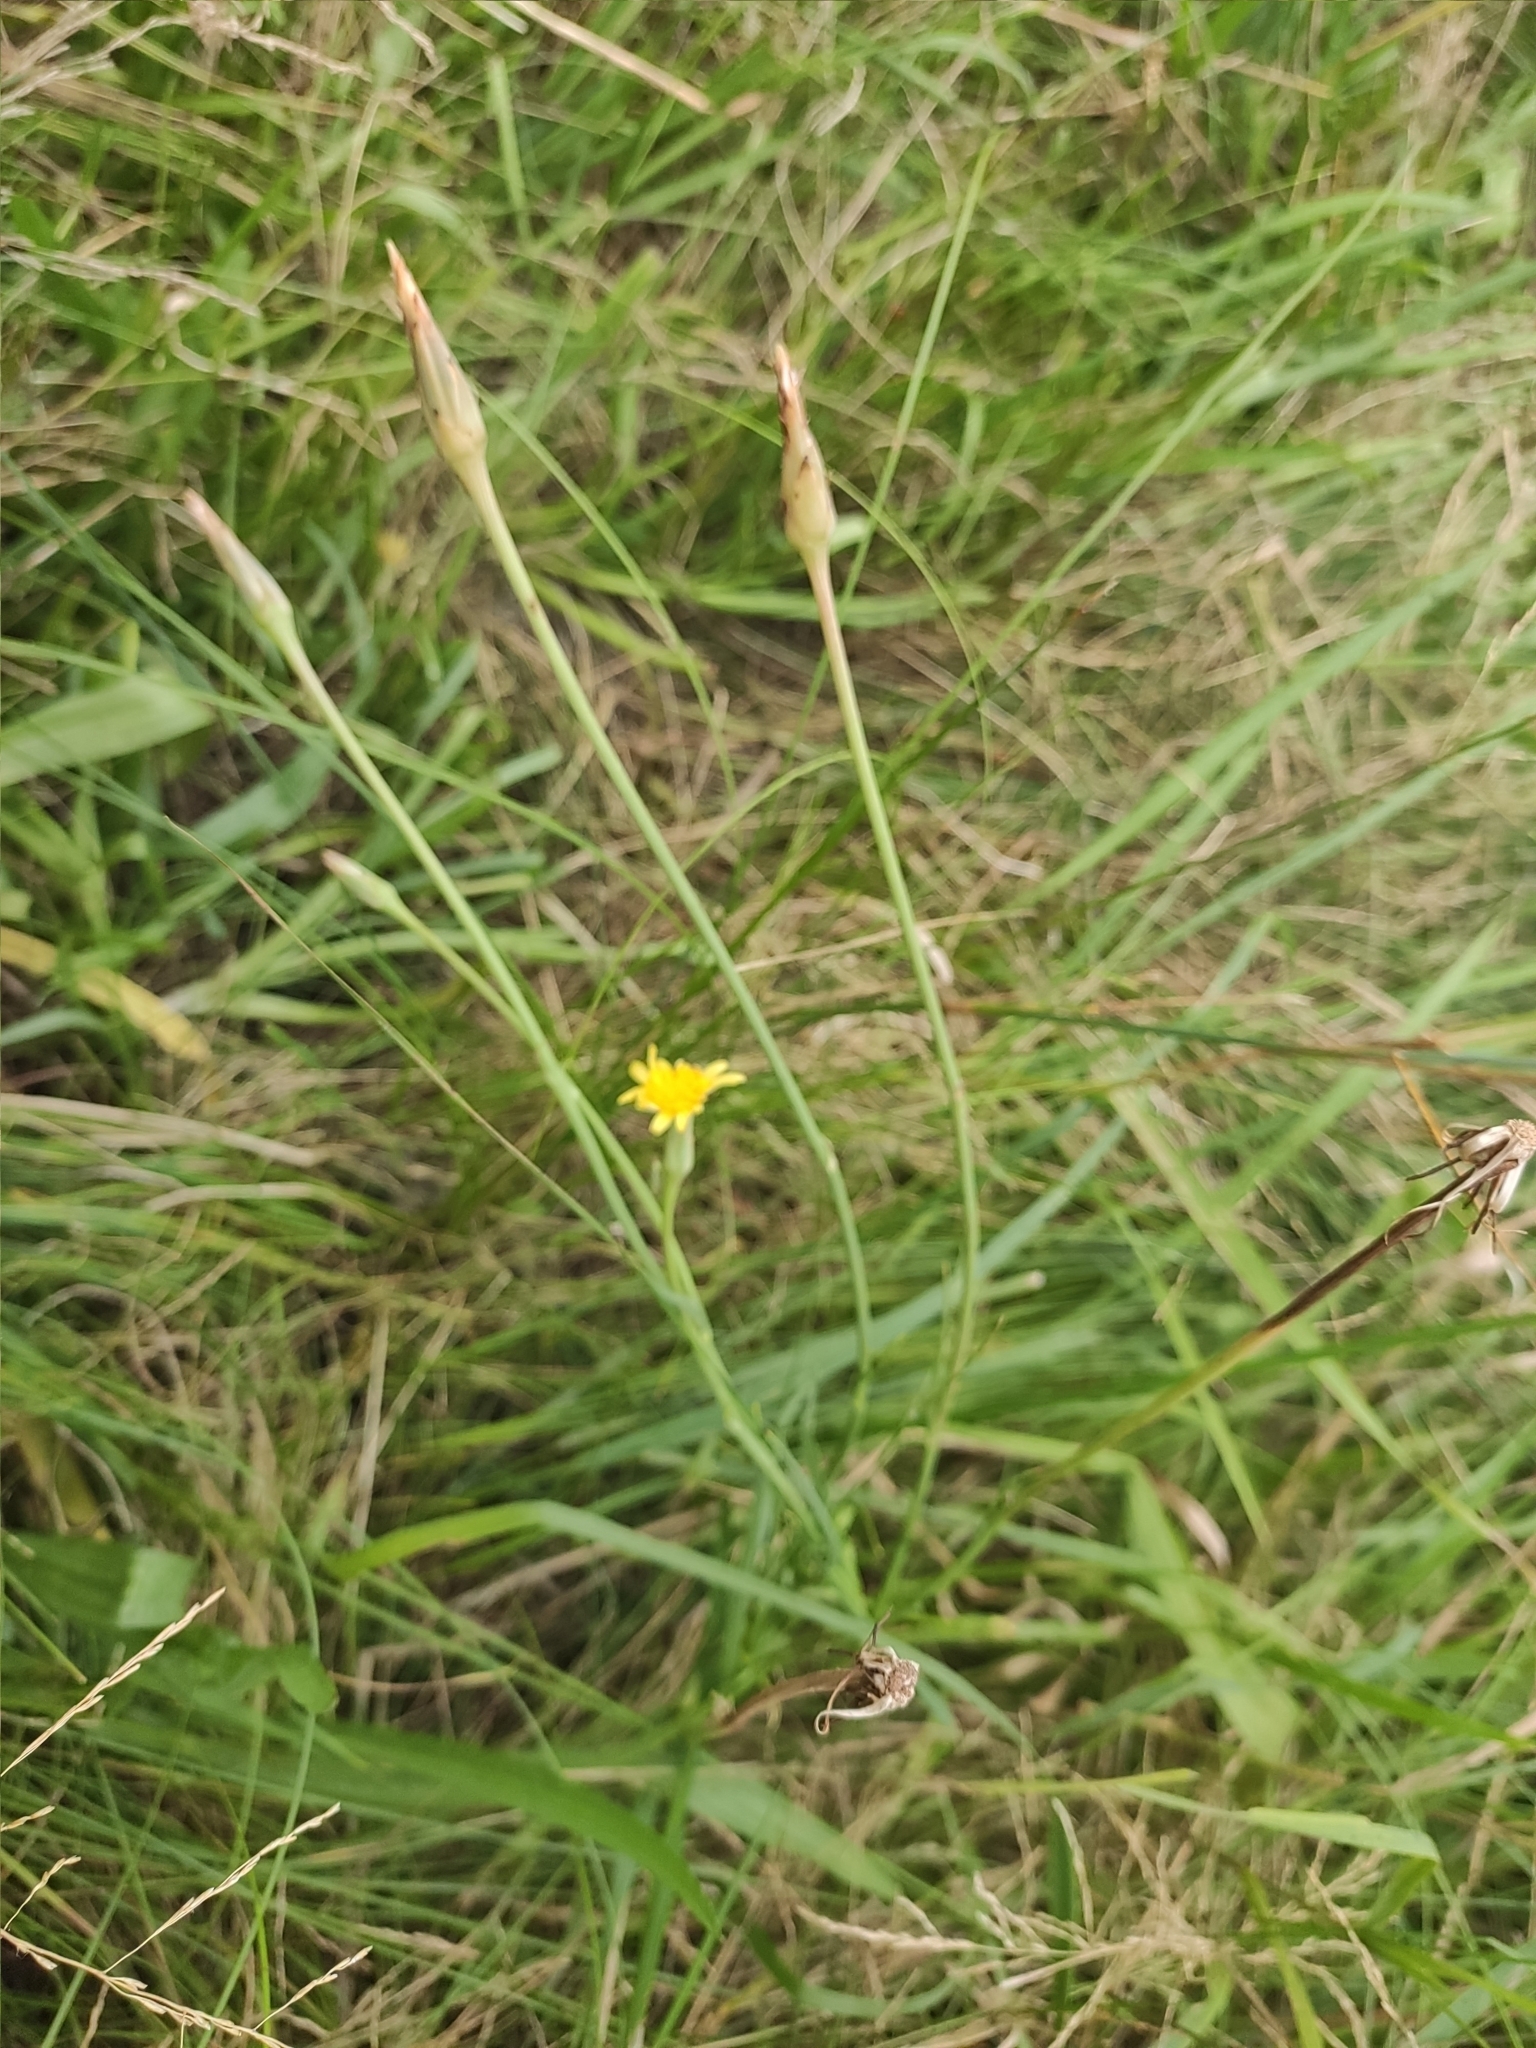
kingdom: Plantae
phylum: Tracheophyta
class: Magnoliopsida
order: Asterales
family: Asteraceae
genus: Scorzonera
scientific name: Scorzonera parviflora
